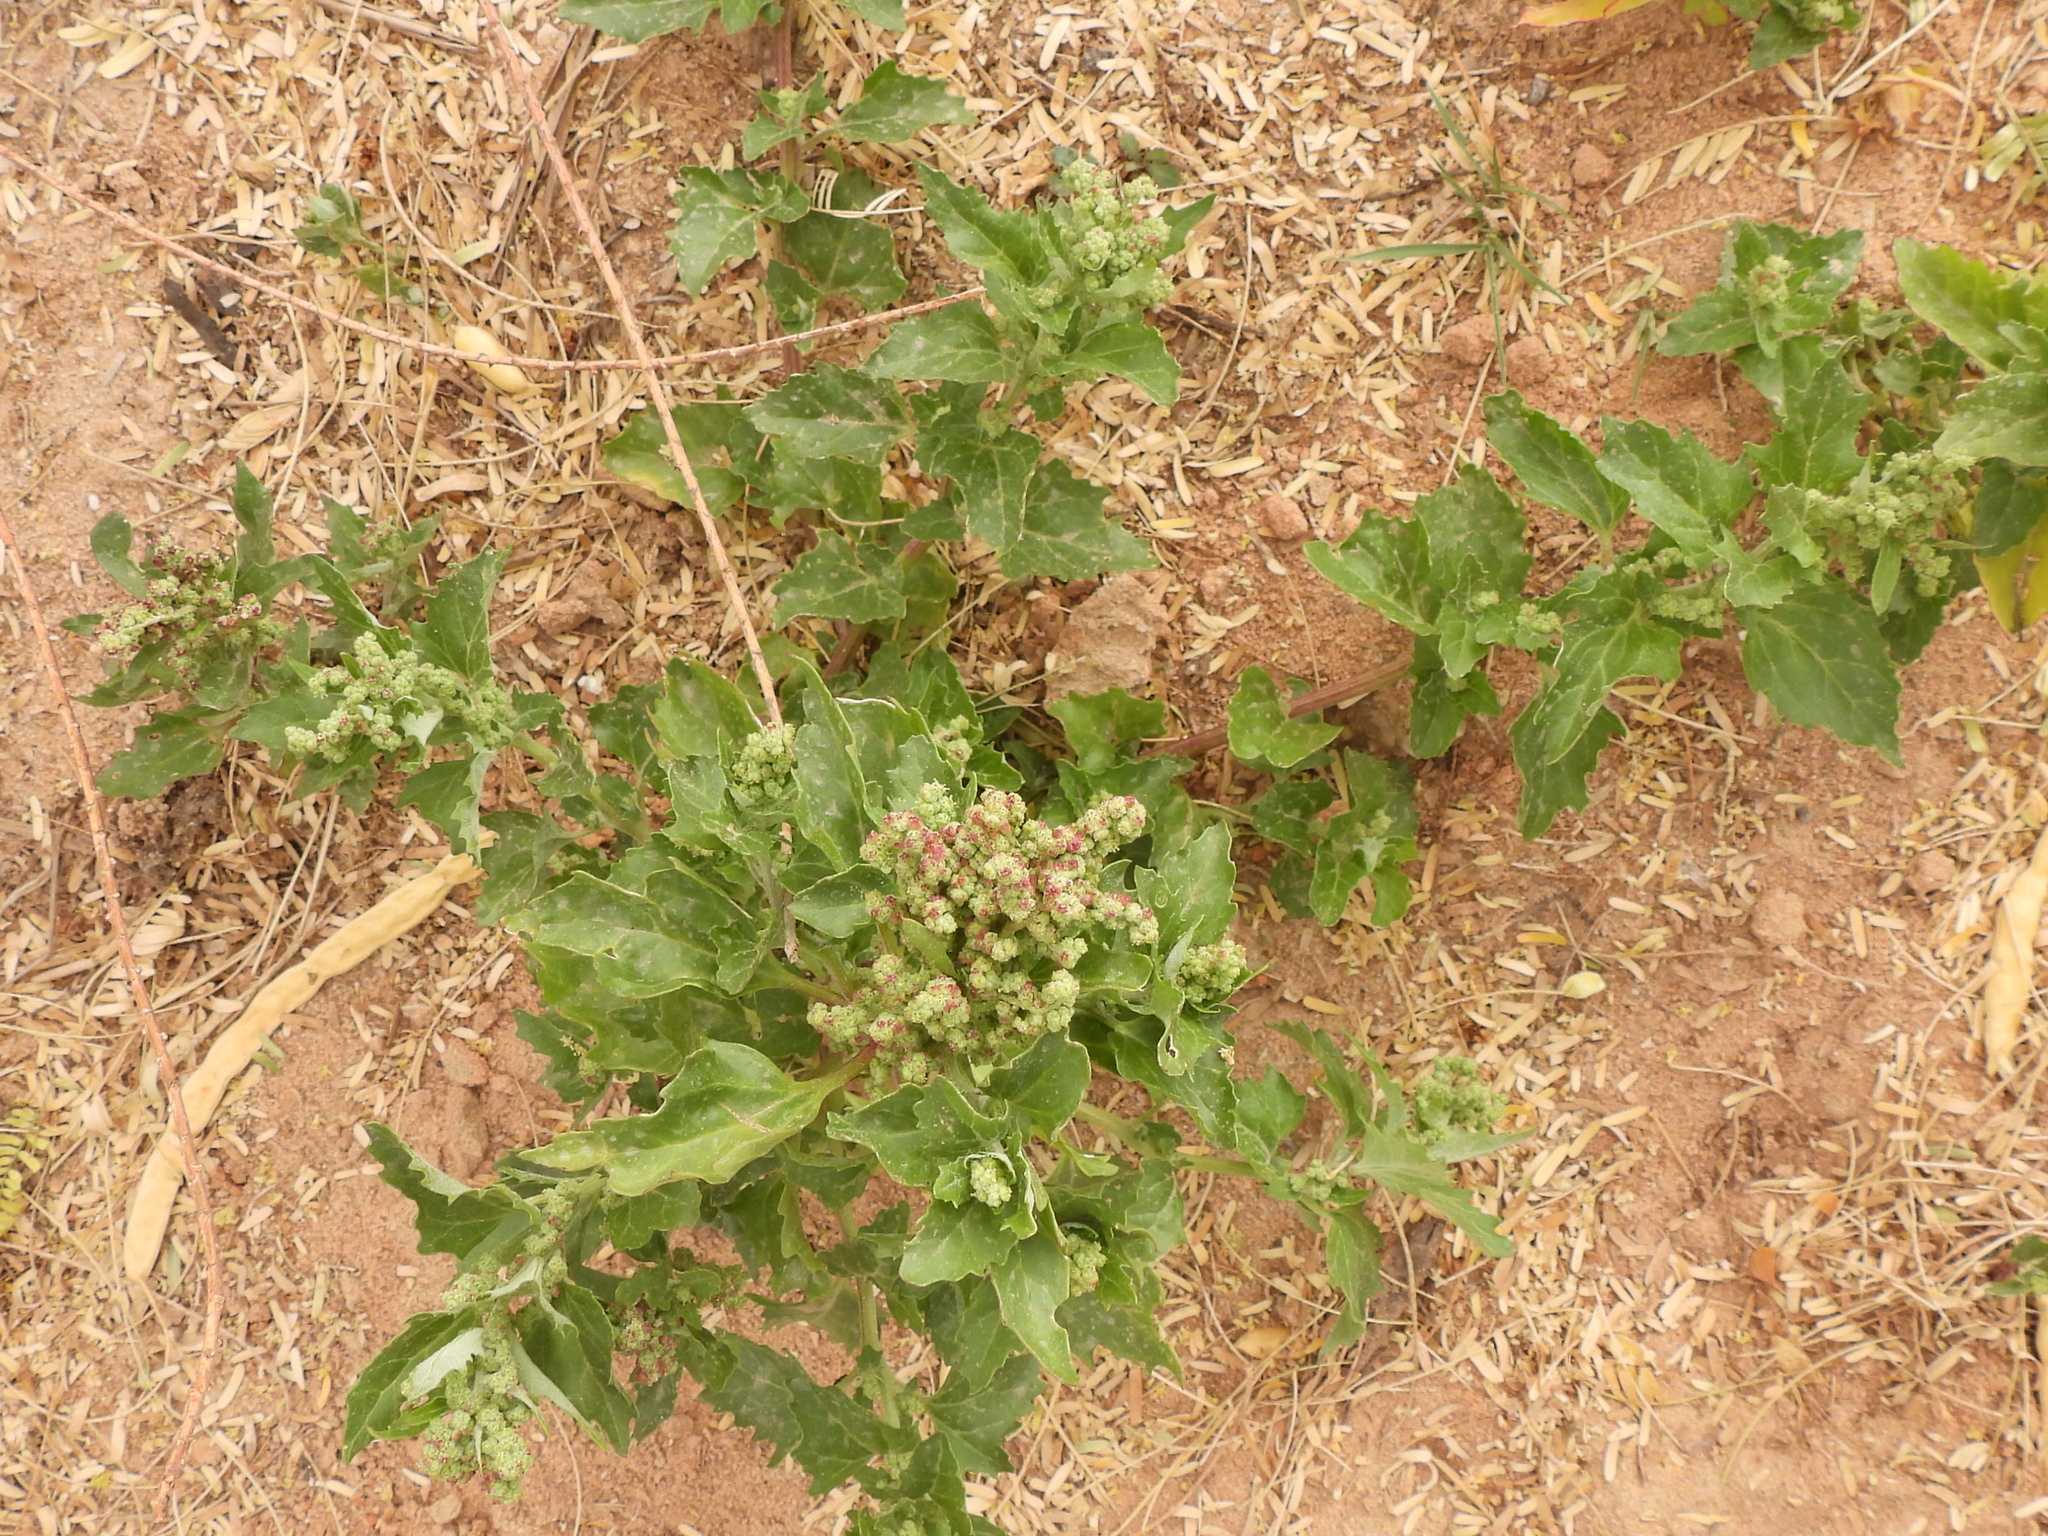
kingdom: Plantae
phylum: Tracheophyta
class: Magnoliopsida
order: Caryophyllales
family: Amaranthaceae
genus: Chenopodiastrum
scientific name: Chenopodiastrum murale
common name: Sowbane
